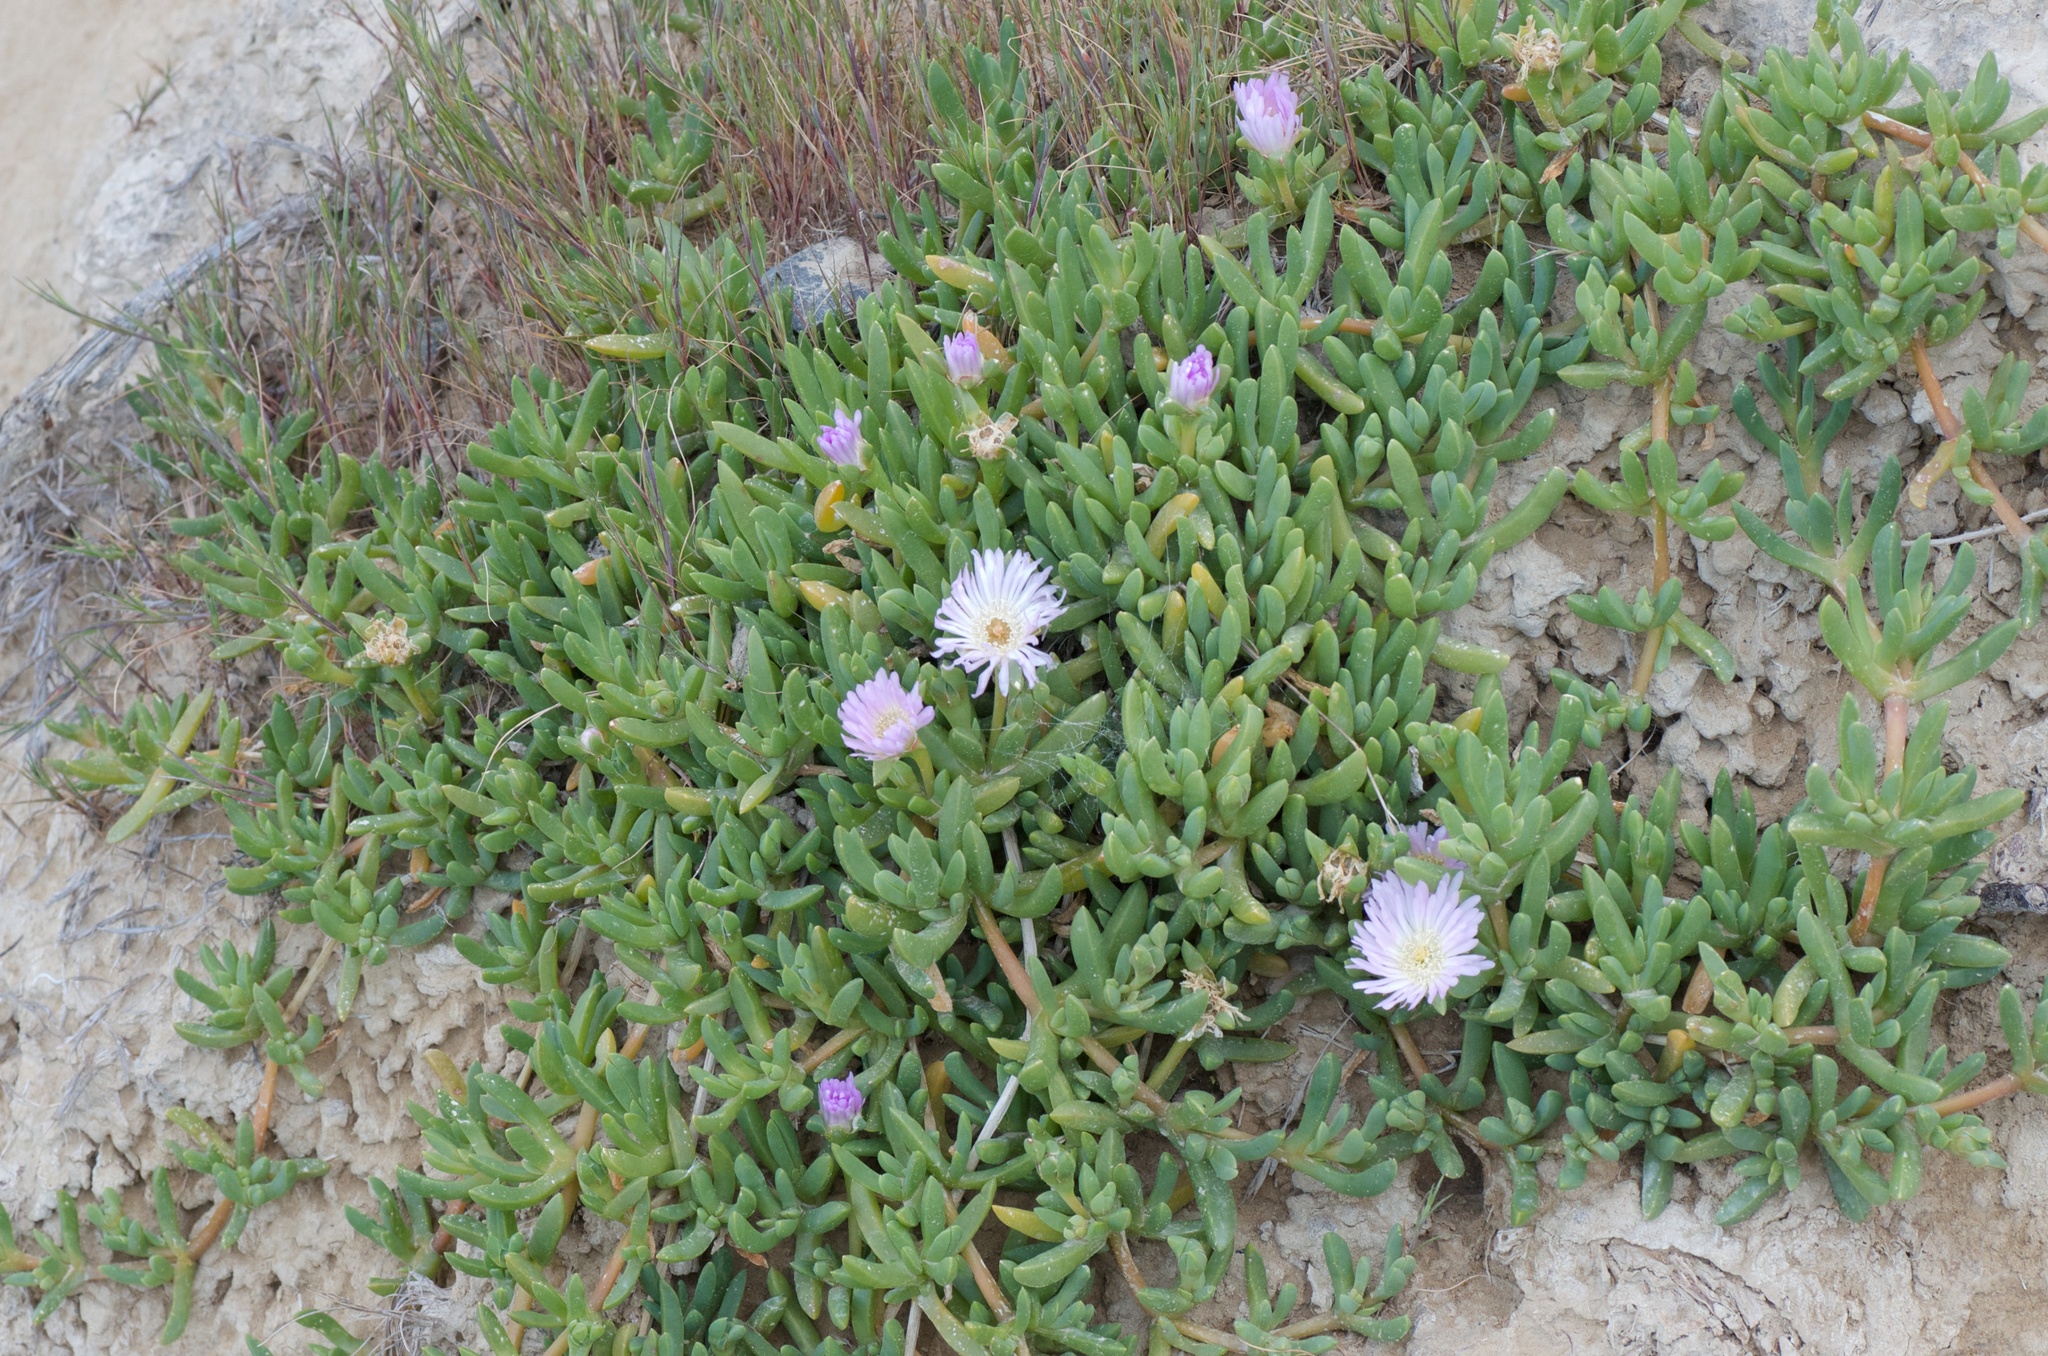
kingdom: Plantae
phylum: Tracheophyta
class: Magnoliopsida
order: Caryophyllales
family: Aizoaceae
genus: Disphyma
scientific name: Disphyma australe
